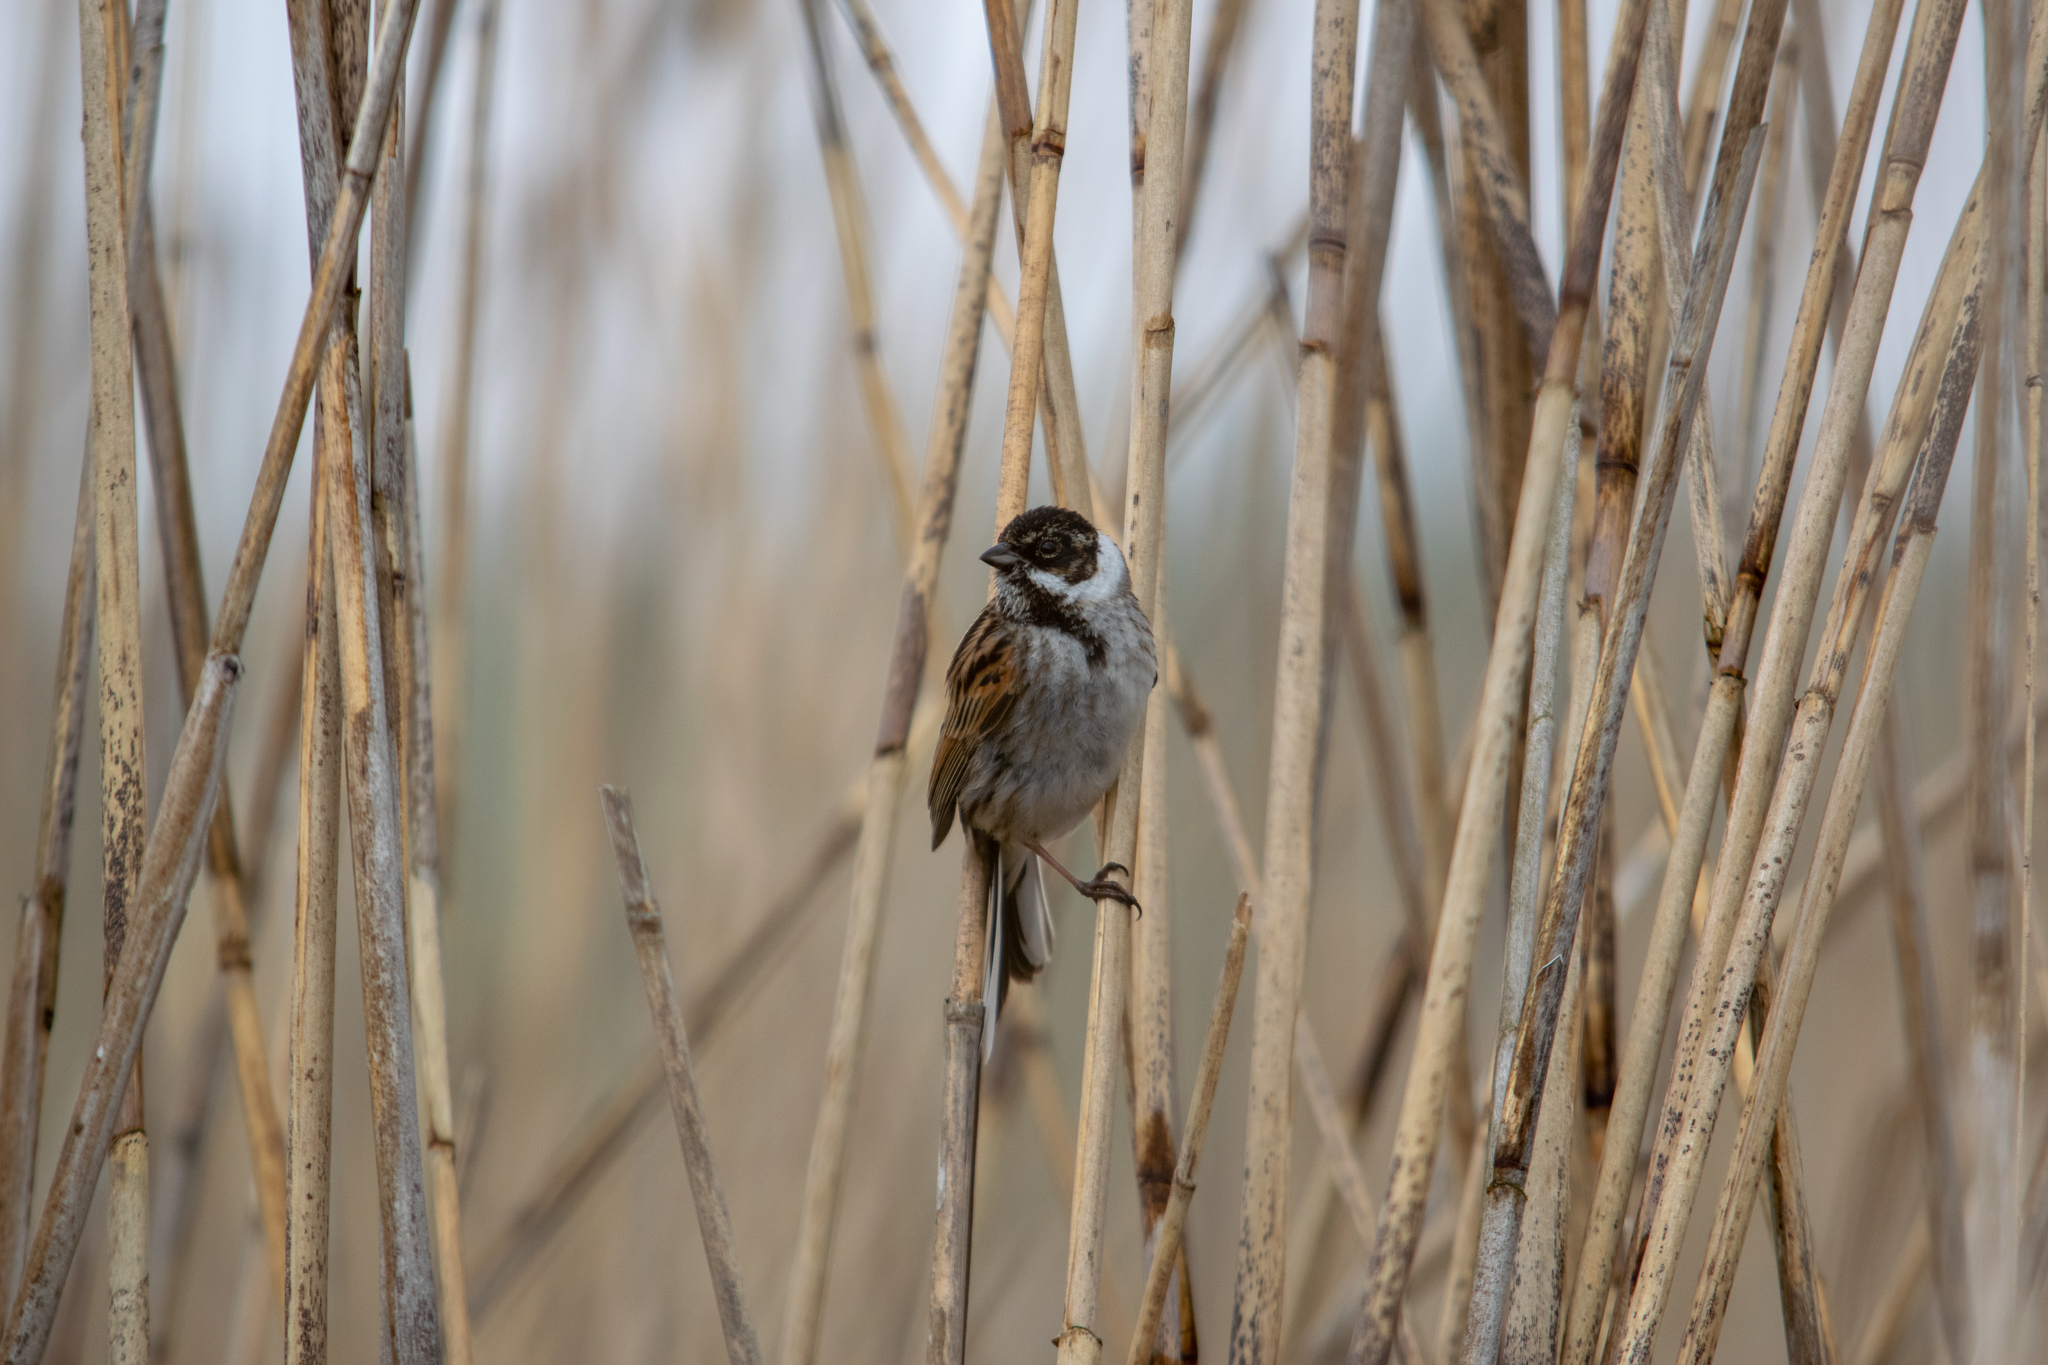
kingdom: Animalia
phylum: Chordata
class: Aves
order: Passeriformes
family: Emberizidae
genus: Emberiza
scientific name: Emberiza schoeniclus
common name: Reed bunting
